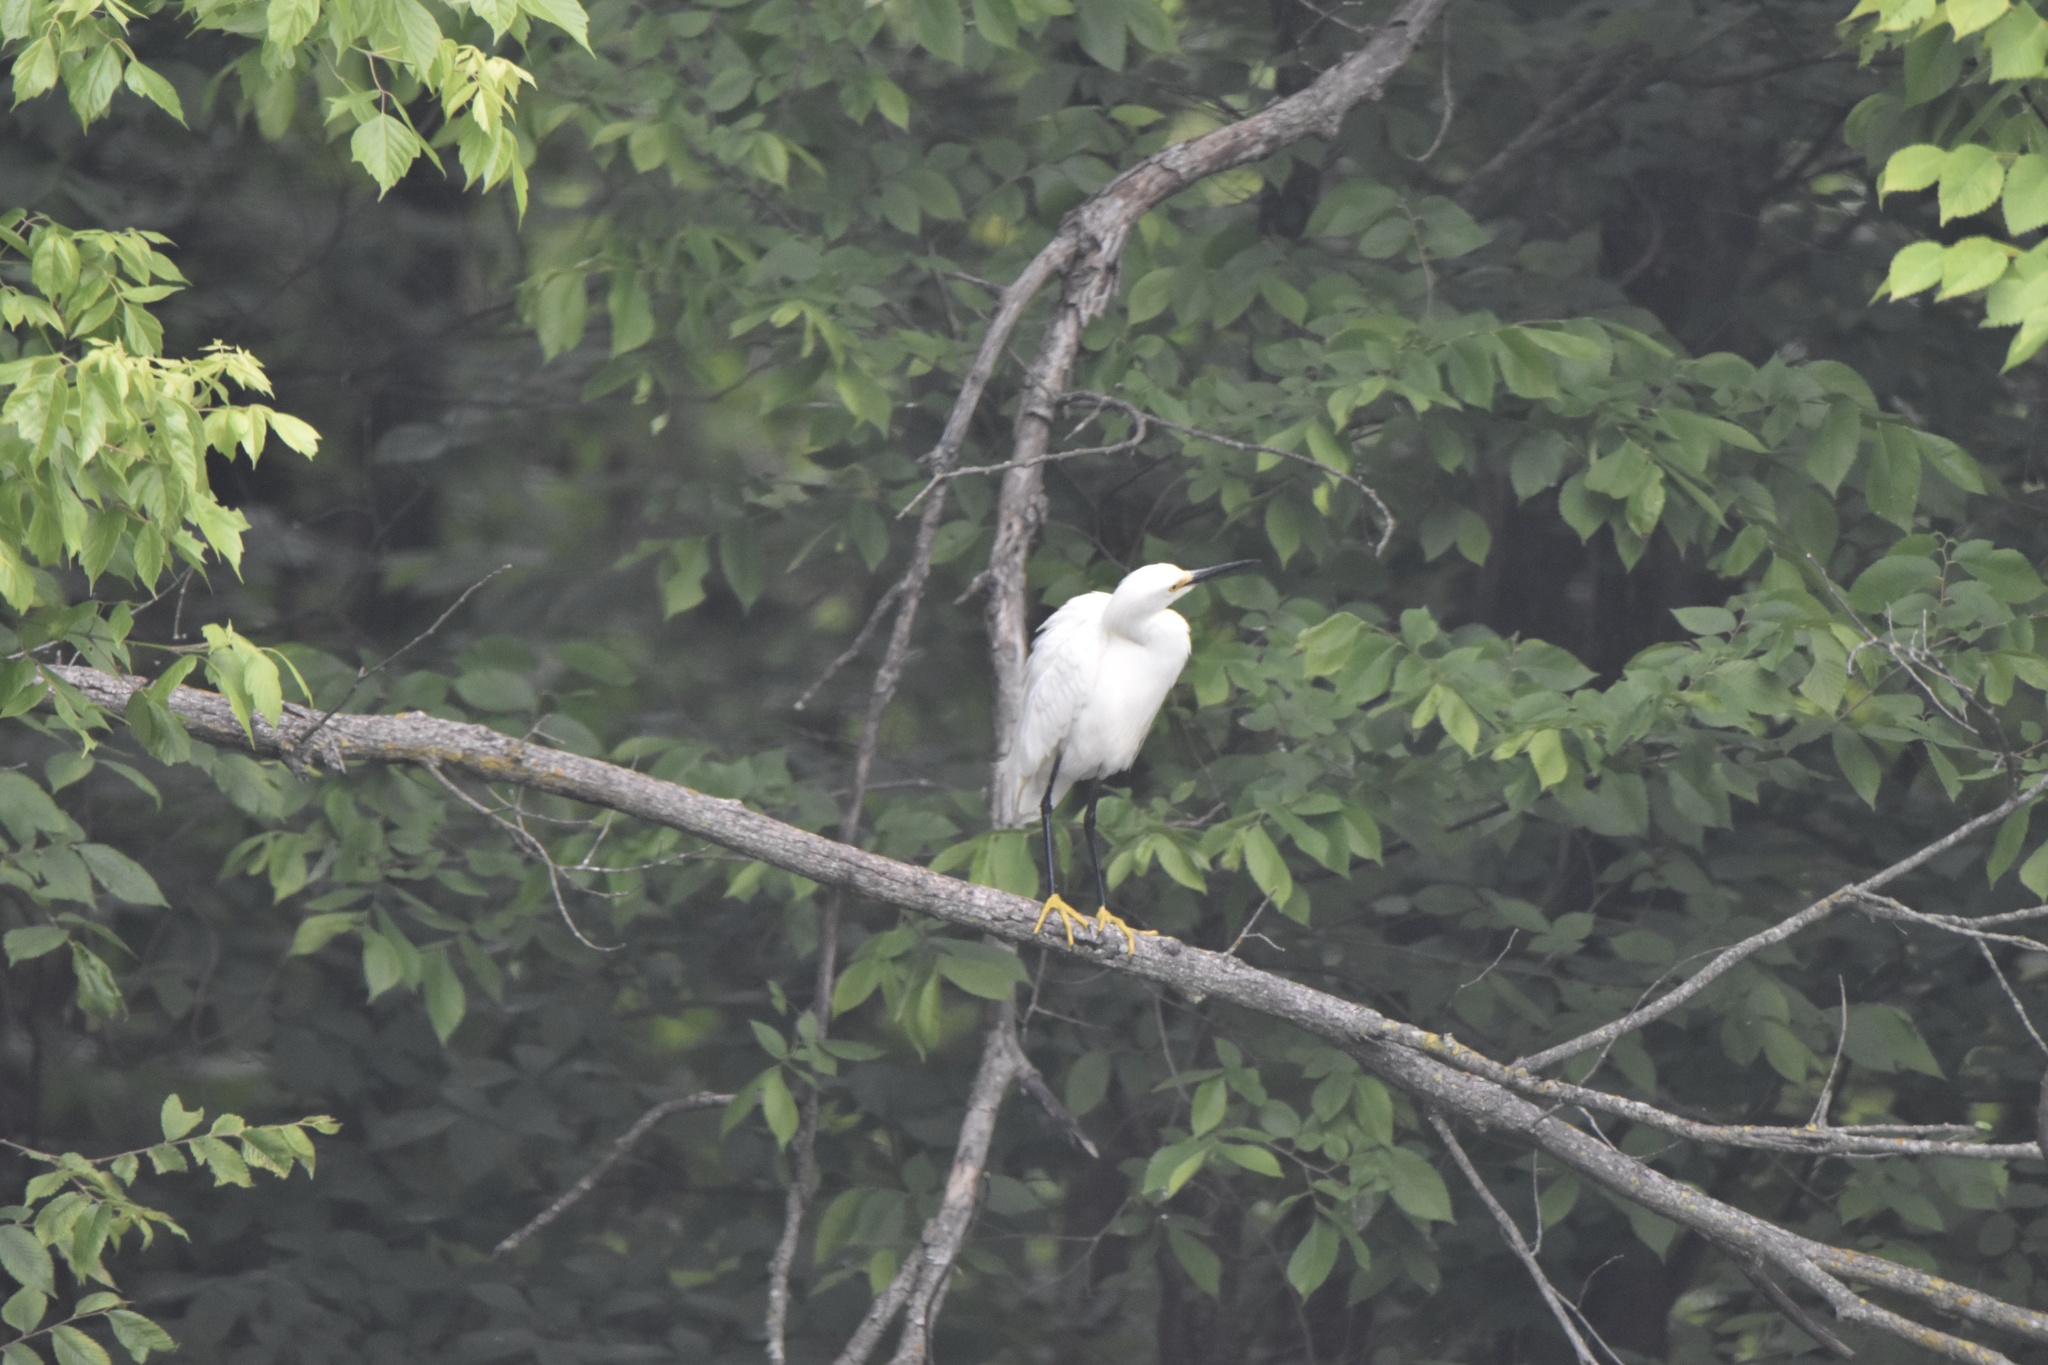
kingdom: Animalia
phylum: Chordata
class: Aves
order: Pelecaniformes
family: Ardeidae
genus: Egretta
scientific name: Egretta thula
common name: Snowy egret
